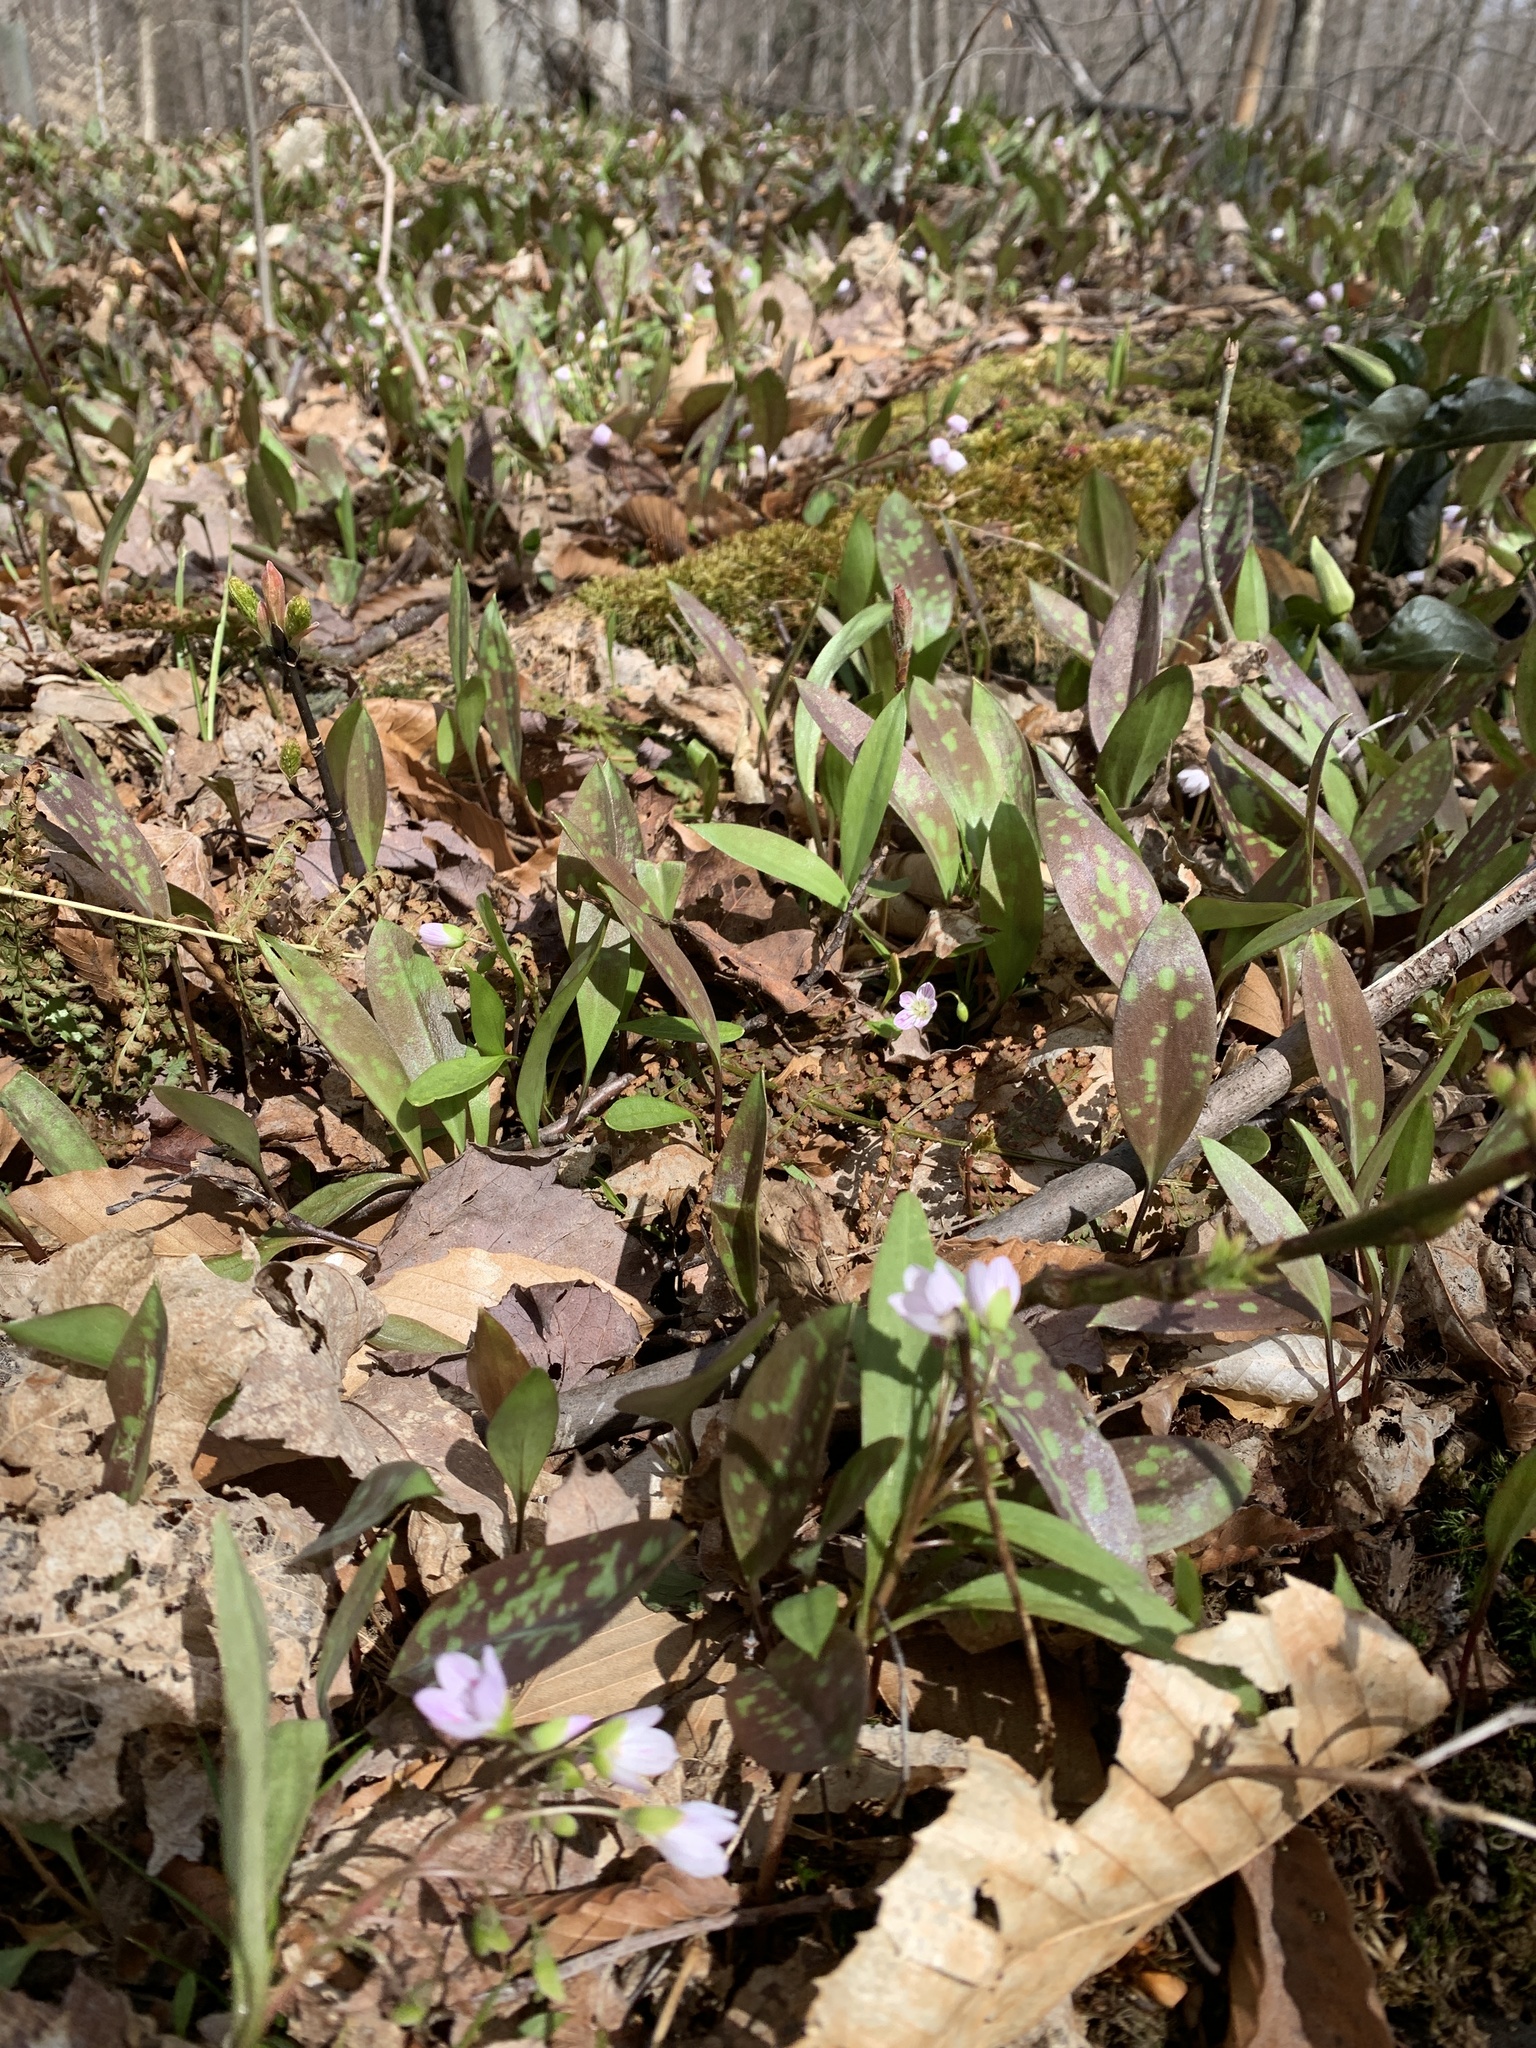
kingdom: Plantae
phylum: Tracheophyta
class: Liliopsida
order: Liliales
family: Liliaceae
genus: Erythronium
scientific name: Erythronium americanum
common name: Yellow adder's-tongue
